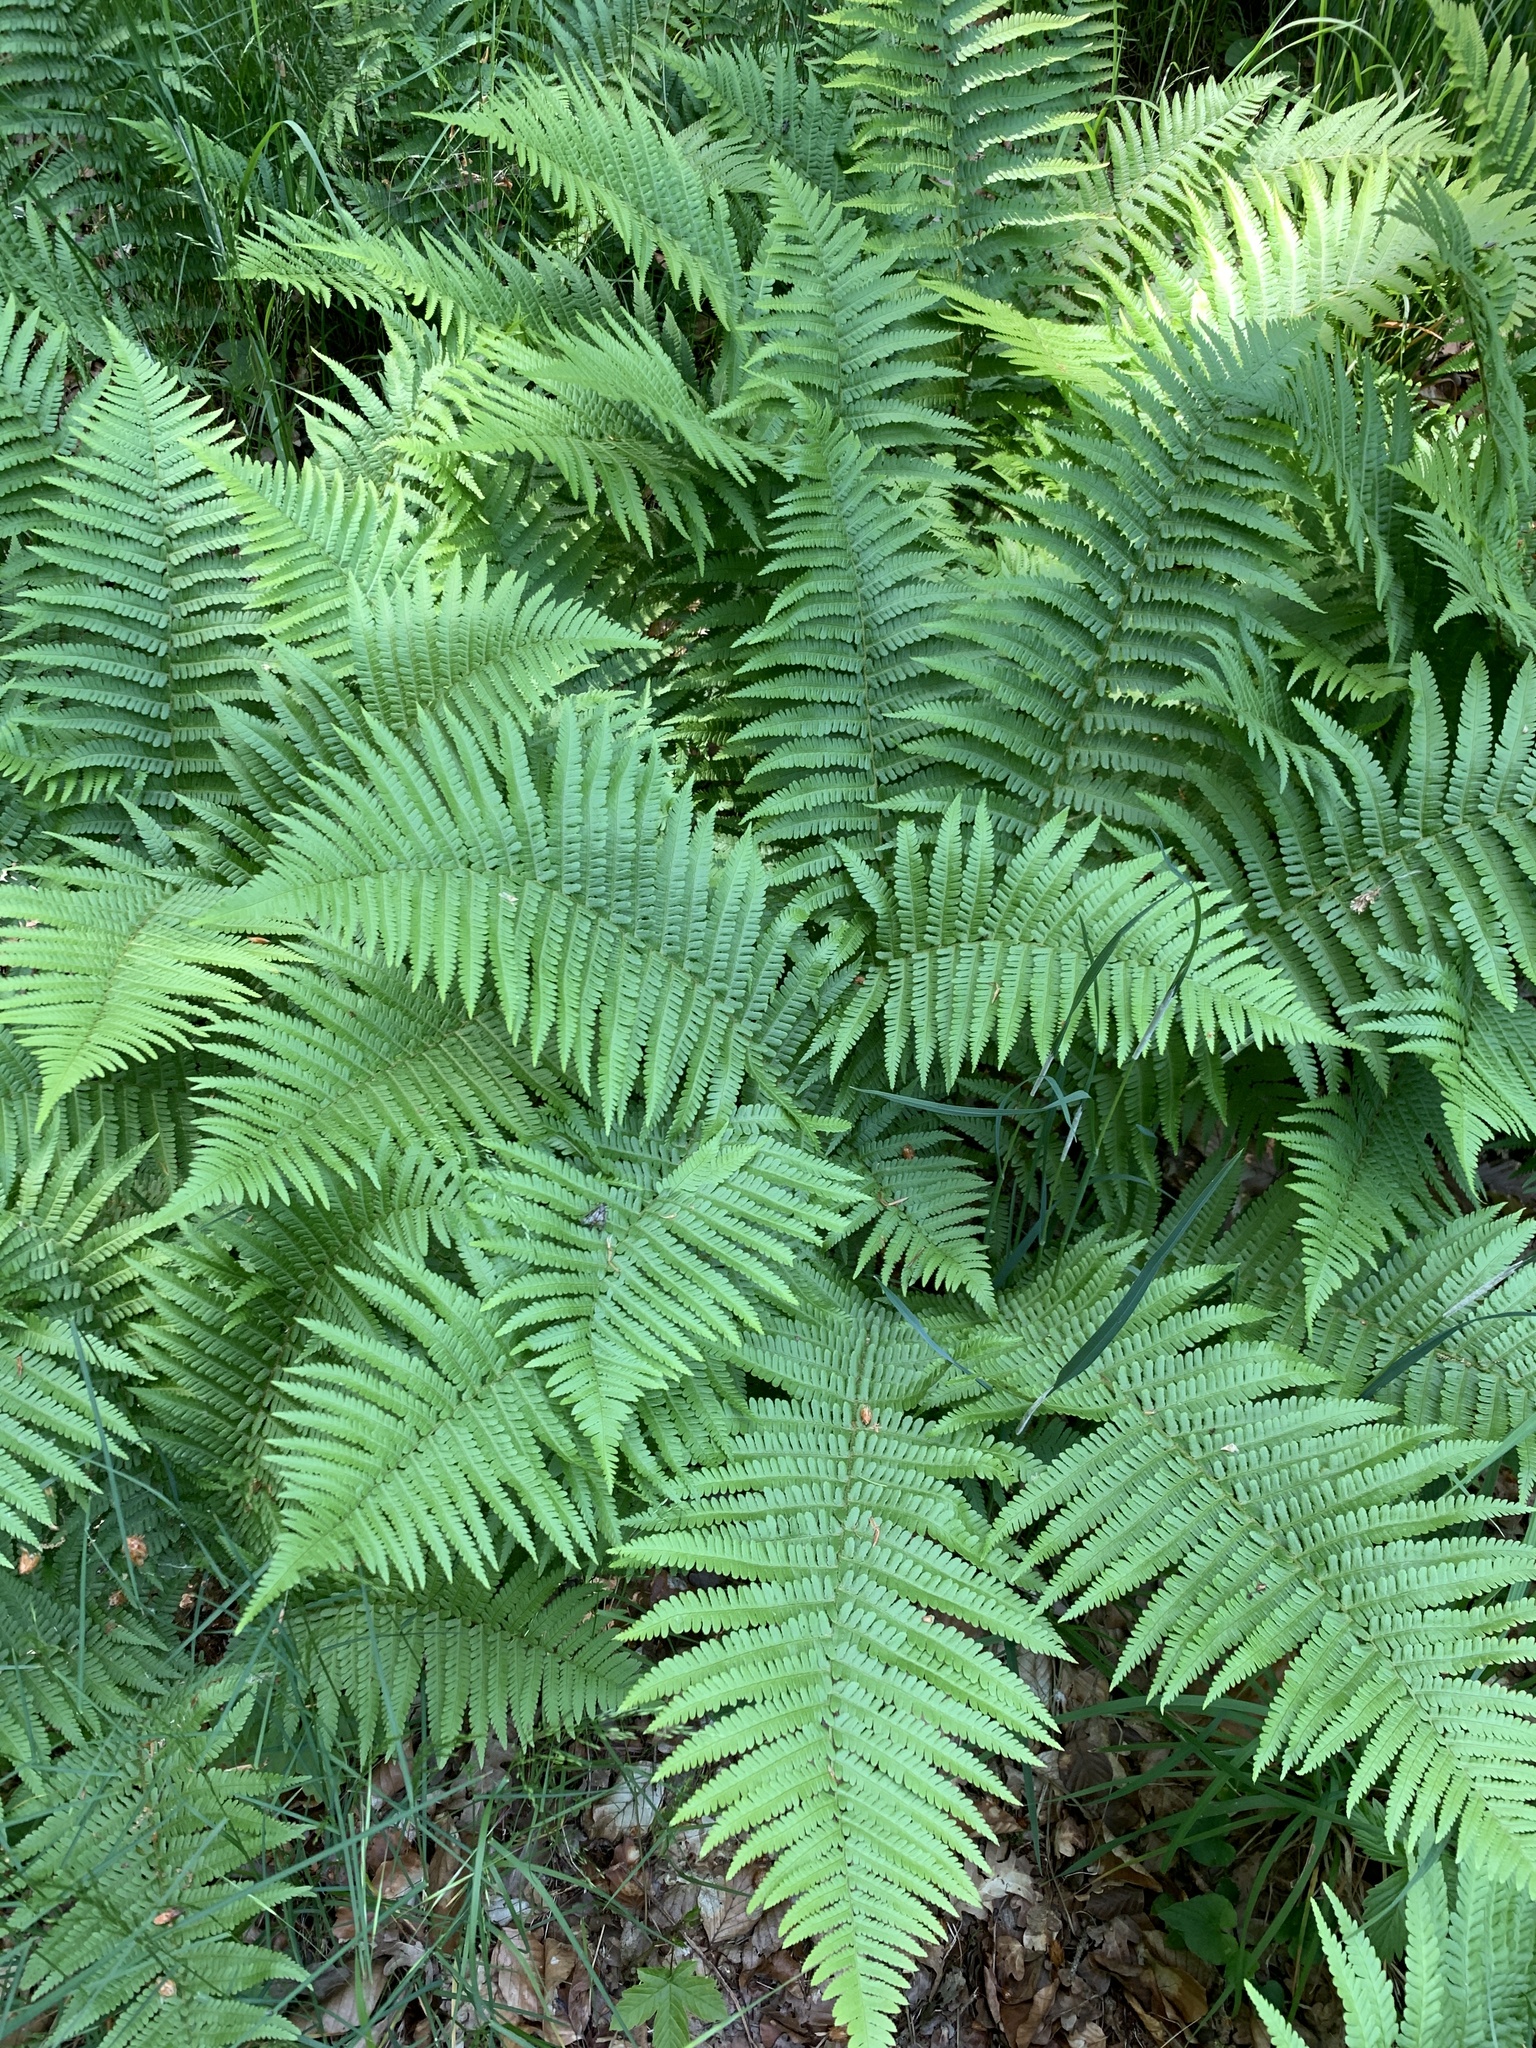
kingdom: Plantae
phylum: Tracheophyta
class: Polypodiopsida
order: Polypodiales
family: Dryopteridaceae
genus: Dryopteris
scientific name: Dryopteris filix-mas
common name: Male fern
